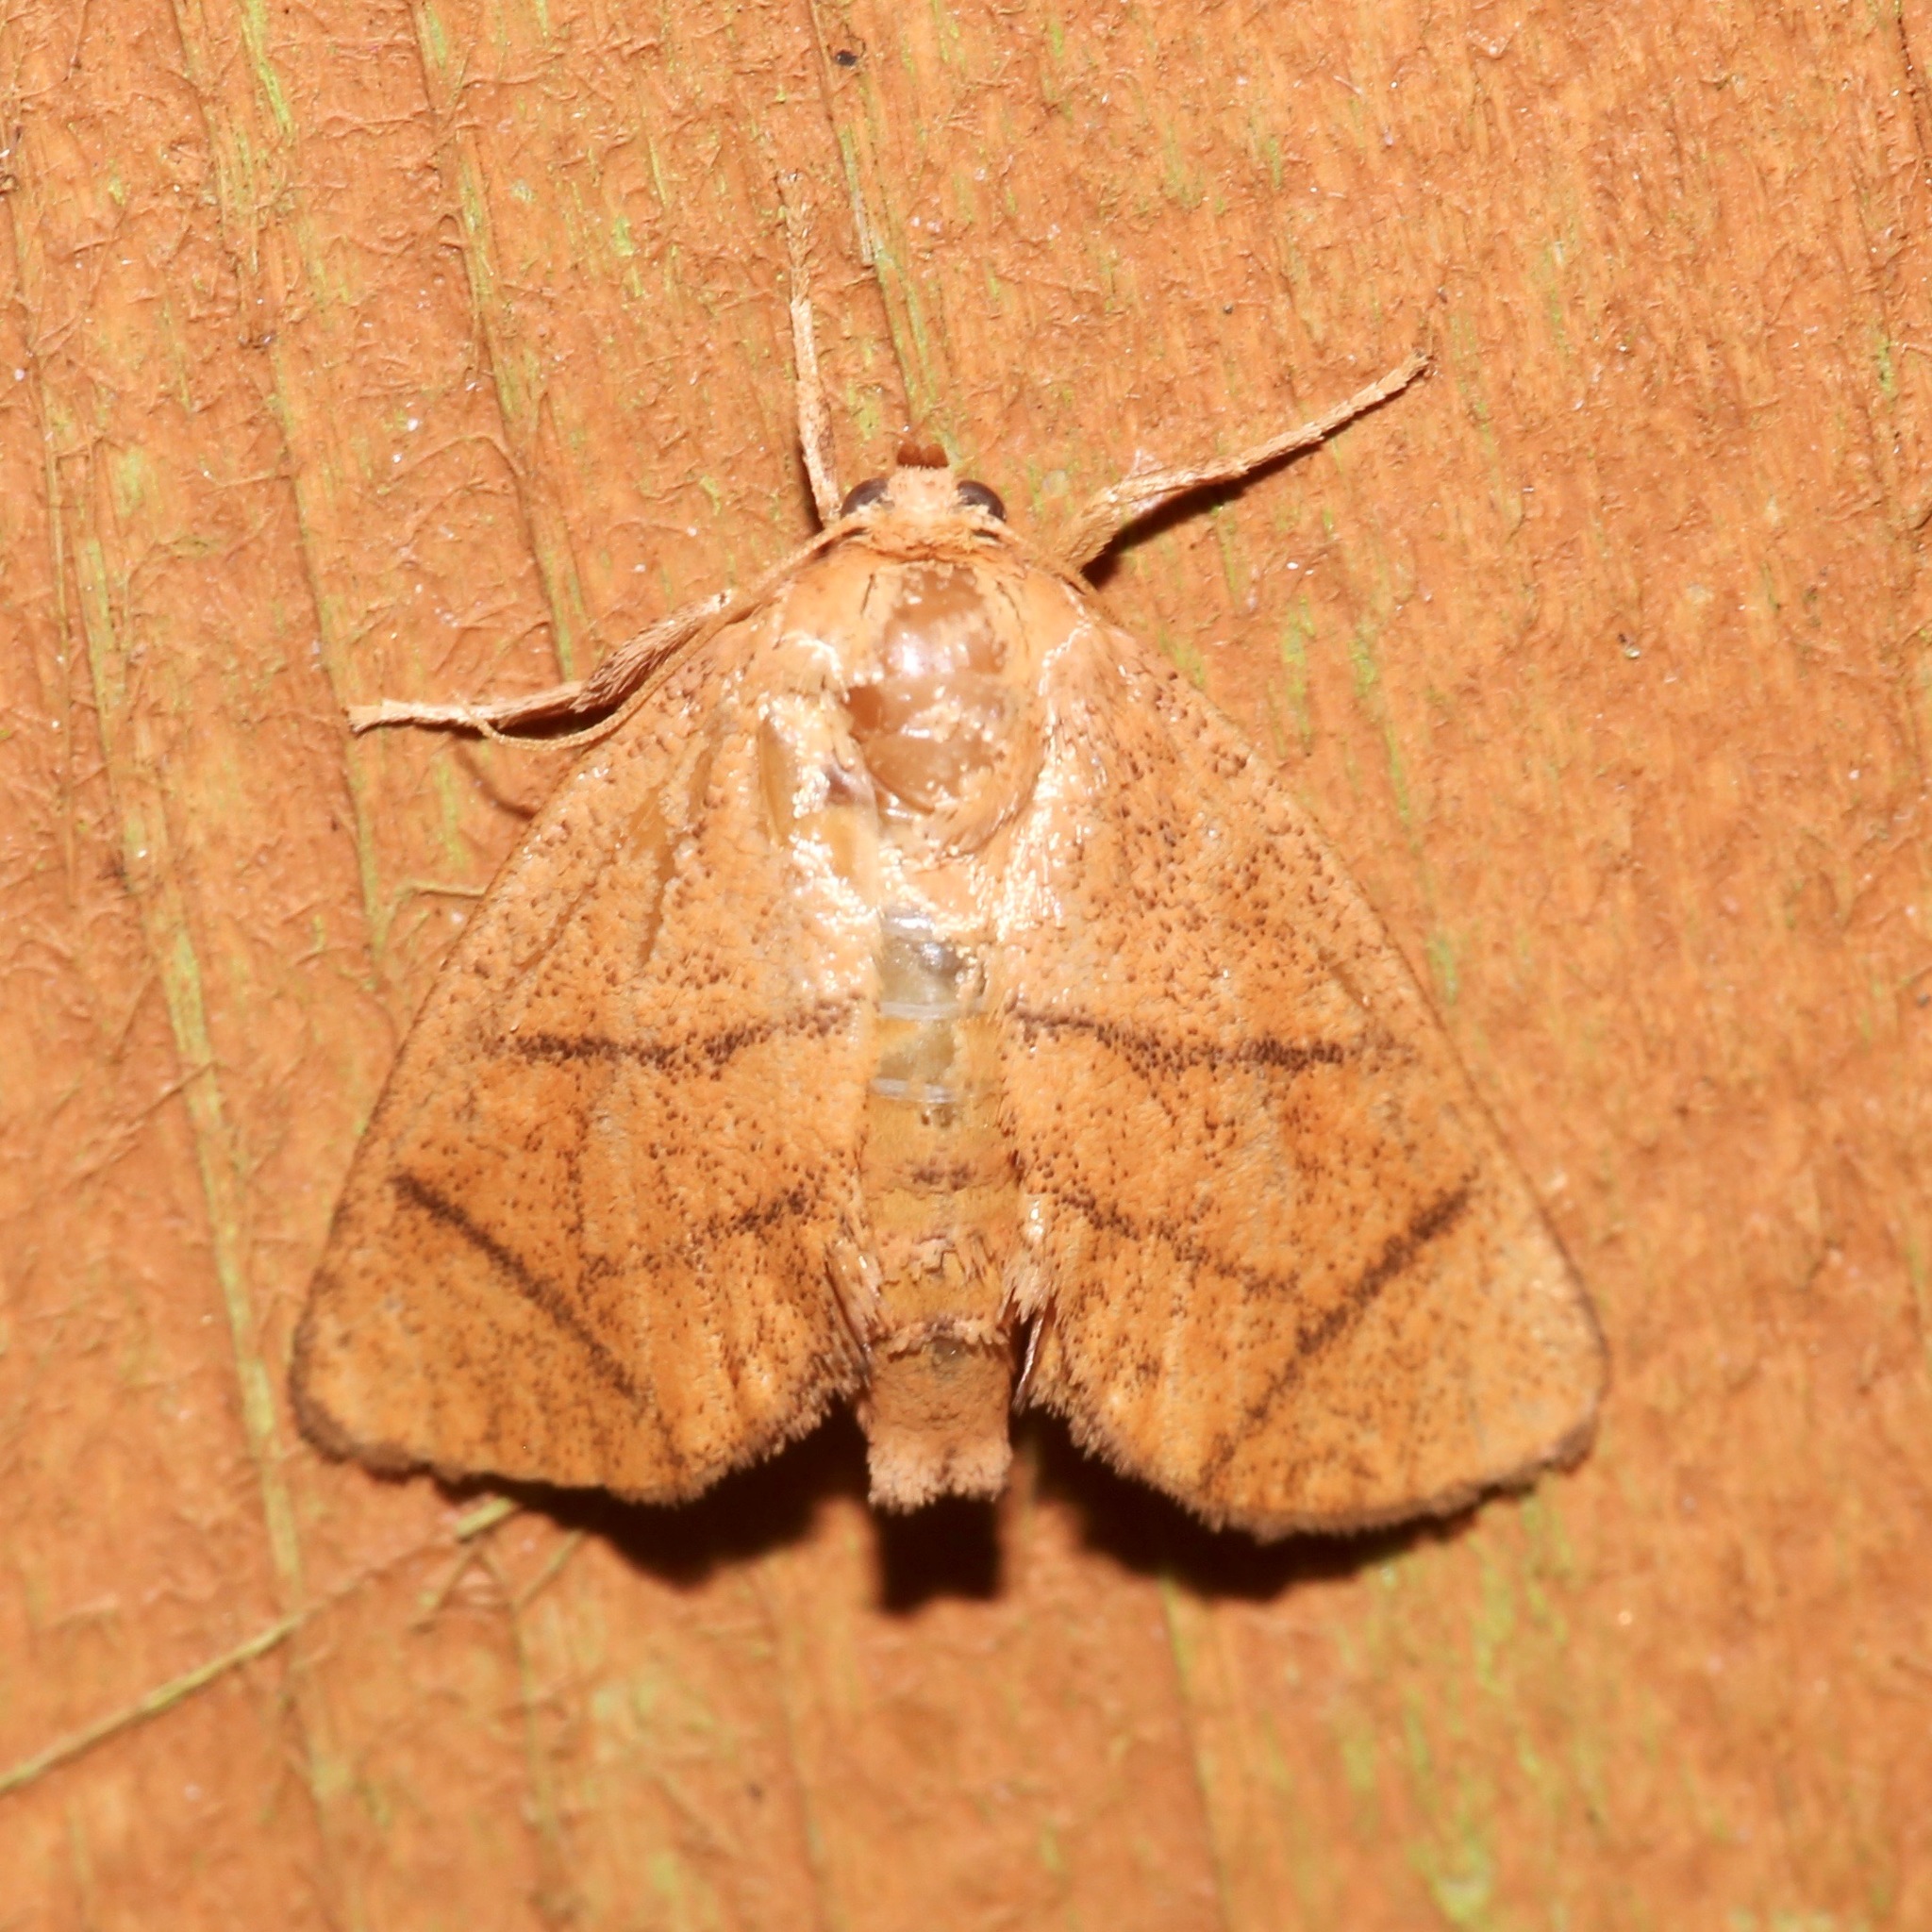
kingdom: Animalia
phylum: Arthropoda
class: Insecta
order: Lepidoptera
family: Limacodidae
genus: Apoda
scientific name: Apoda y-inversa
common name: Yellow-collared slug moth
